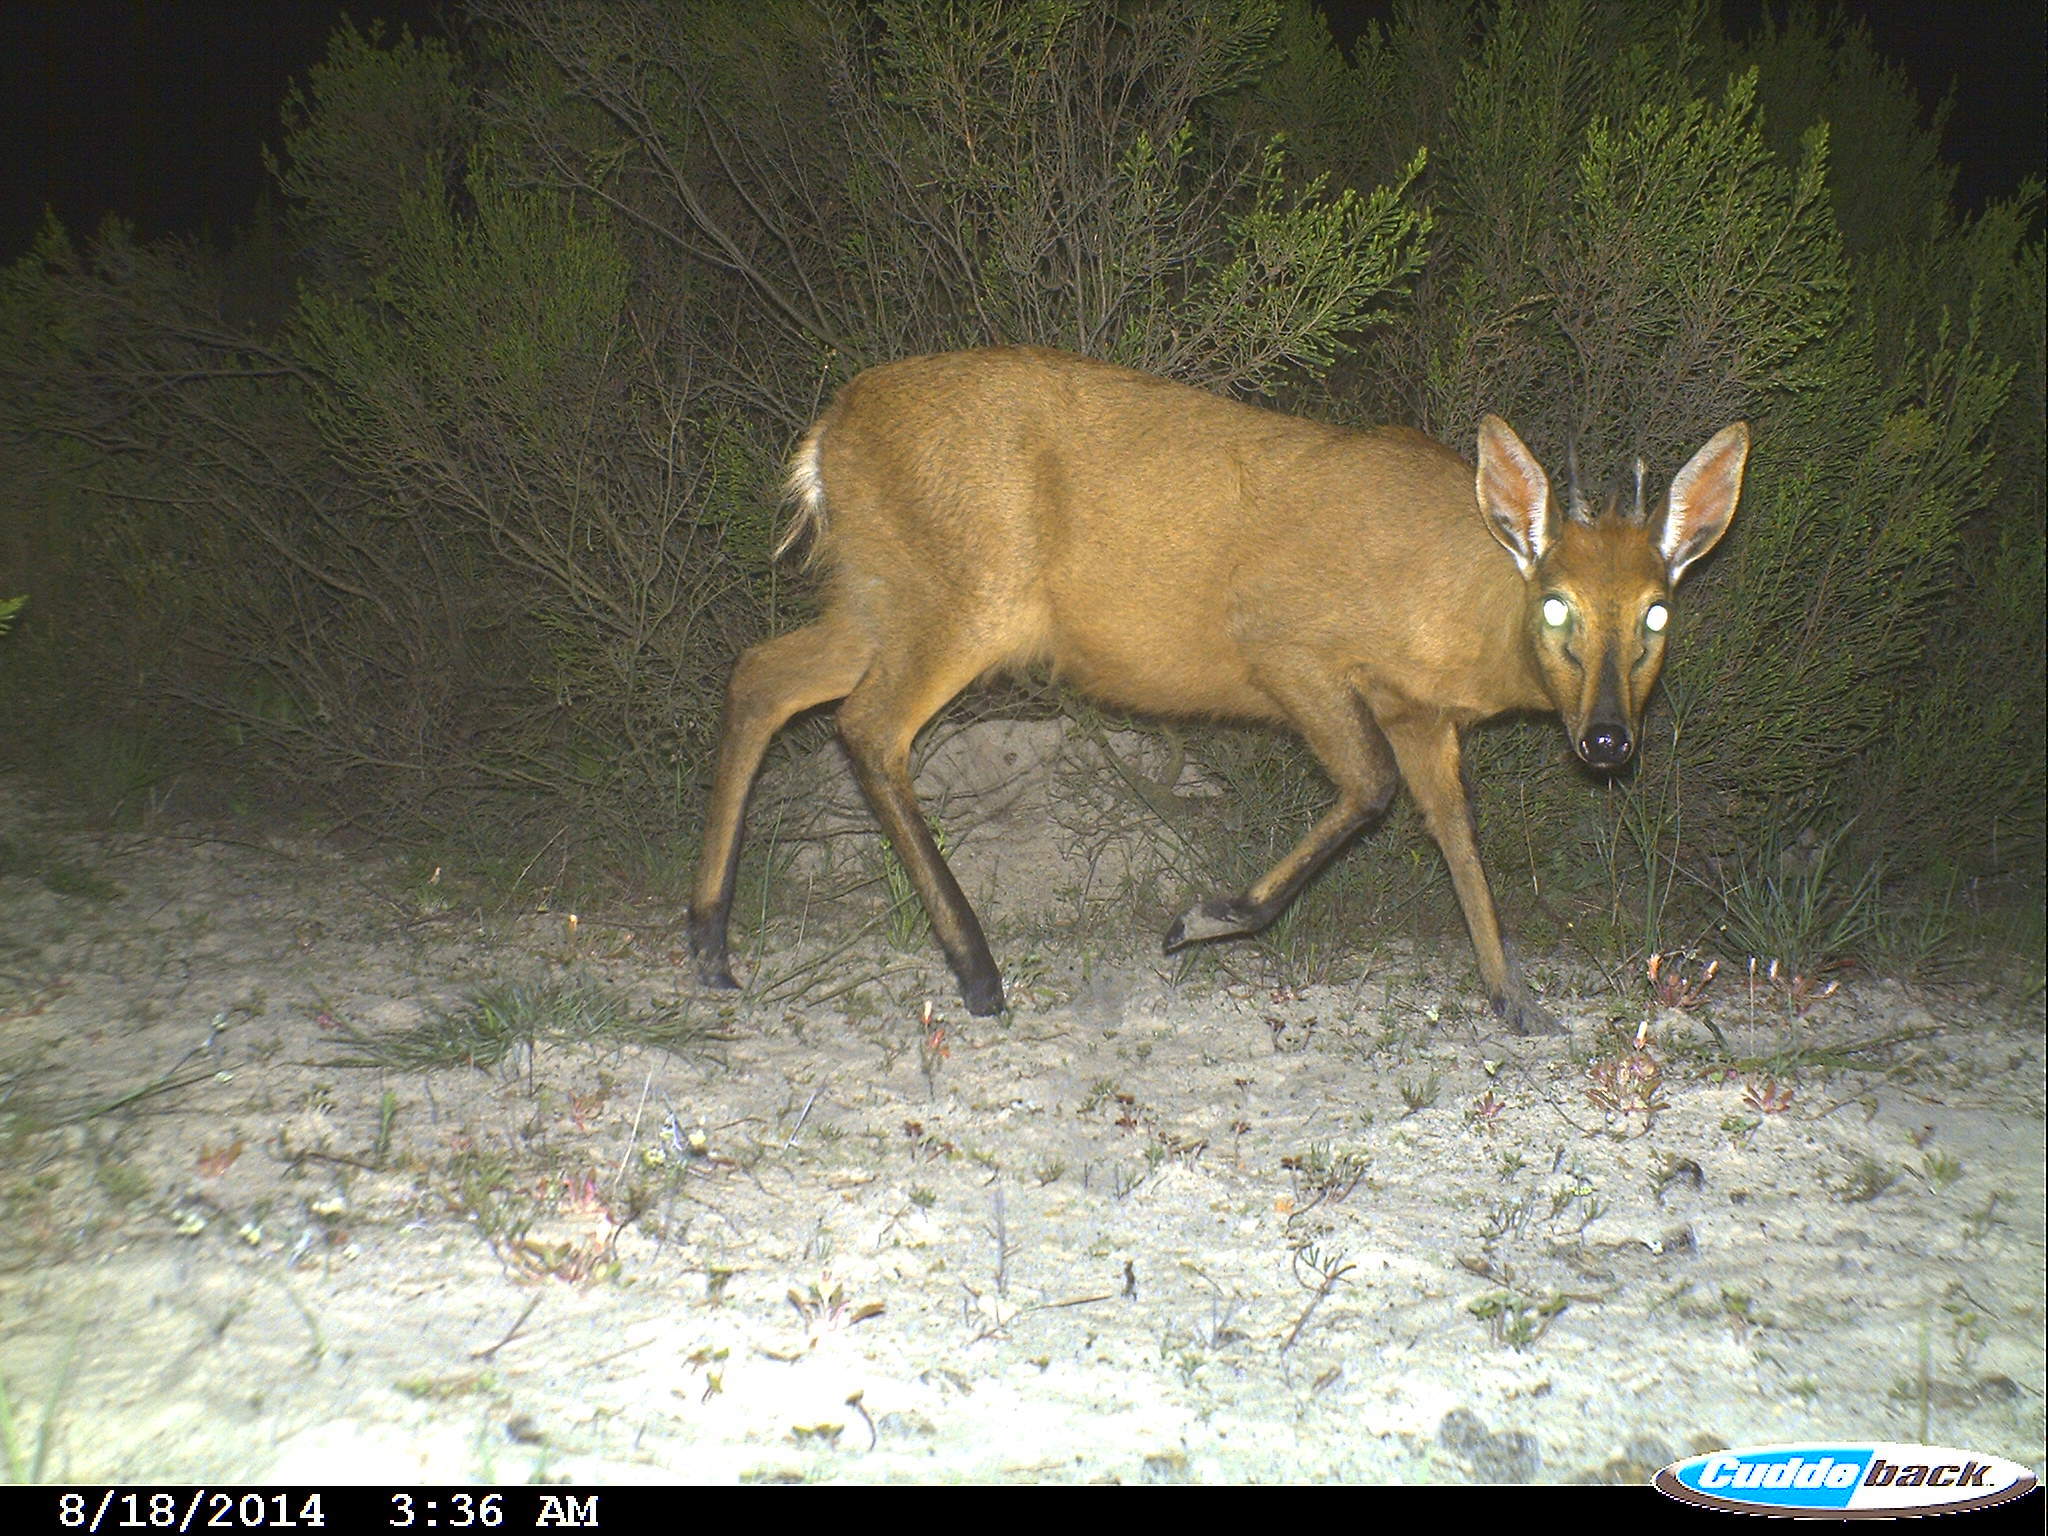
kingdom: Animalia
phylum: Chordata
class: Mammalia
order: Artiodactyla
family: Bovidae
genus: Sylvicapra
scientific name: Sylvicapra grimmia
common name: Bush duiker
